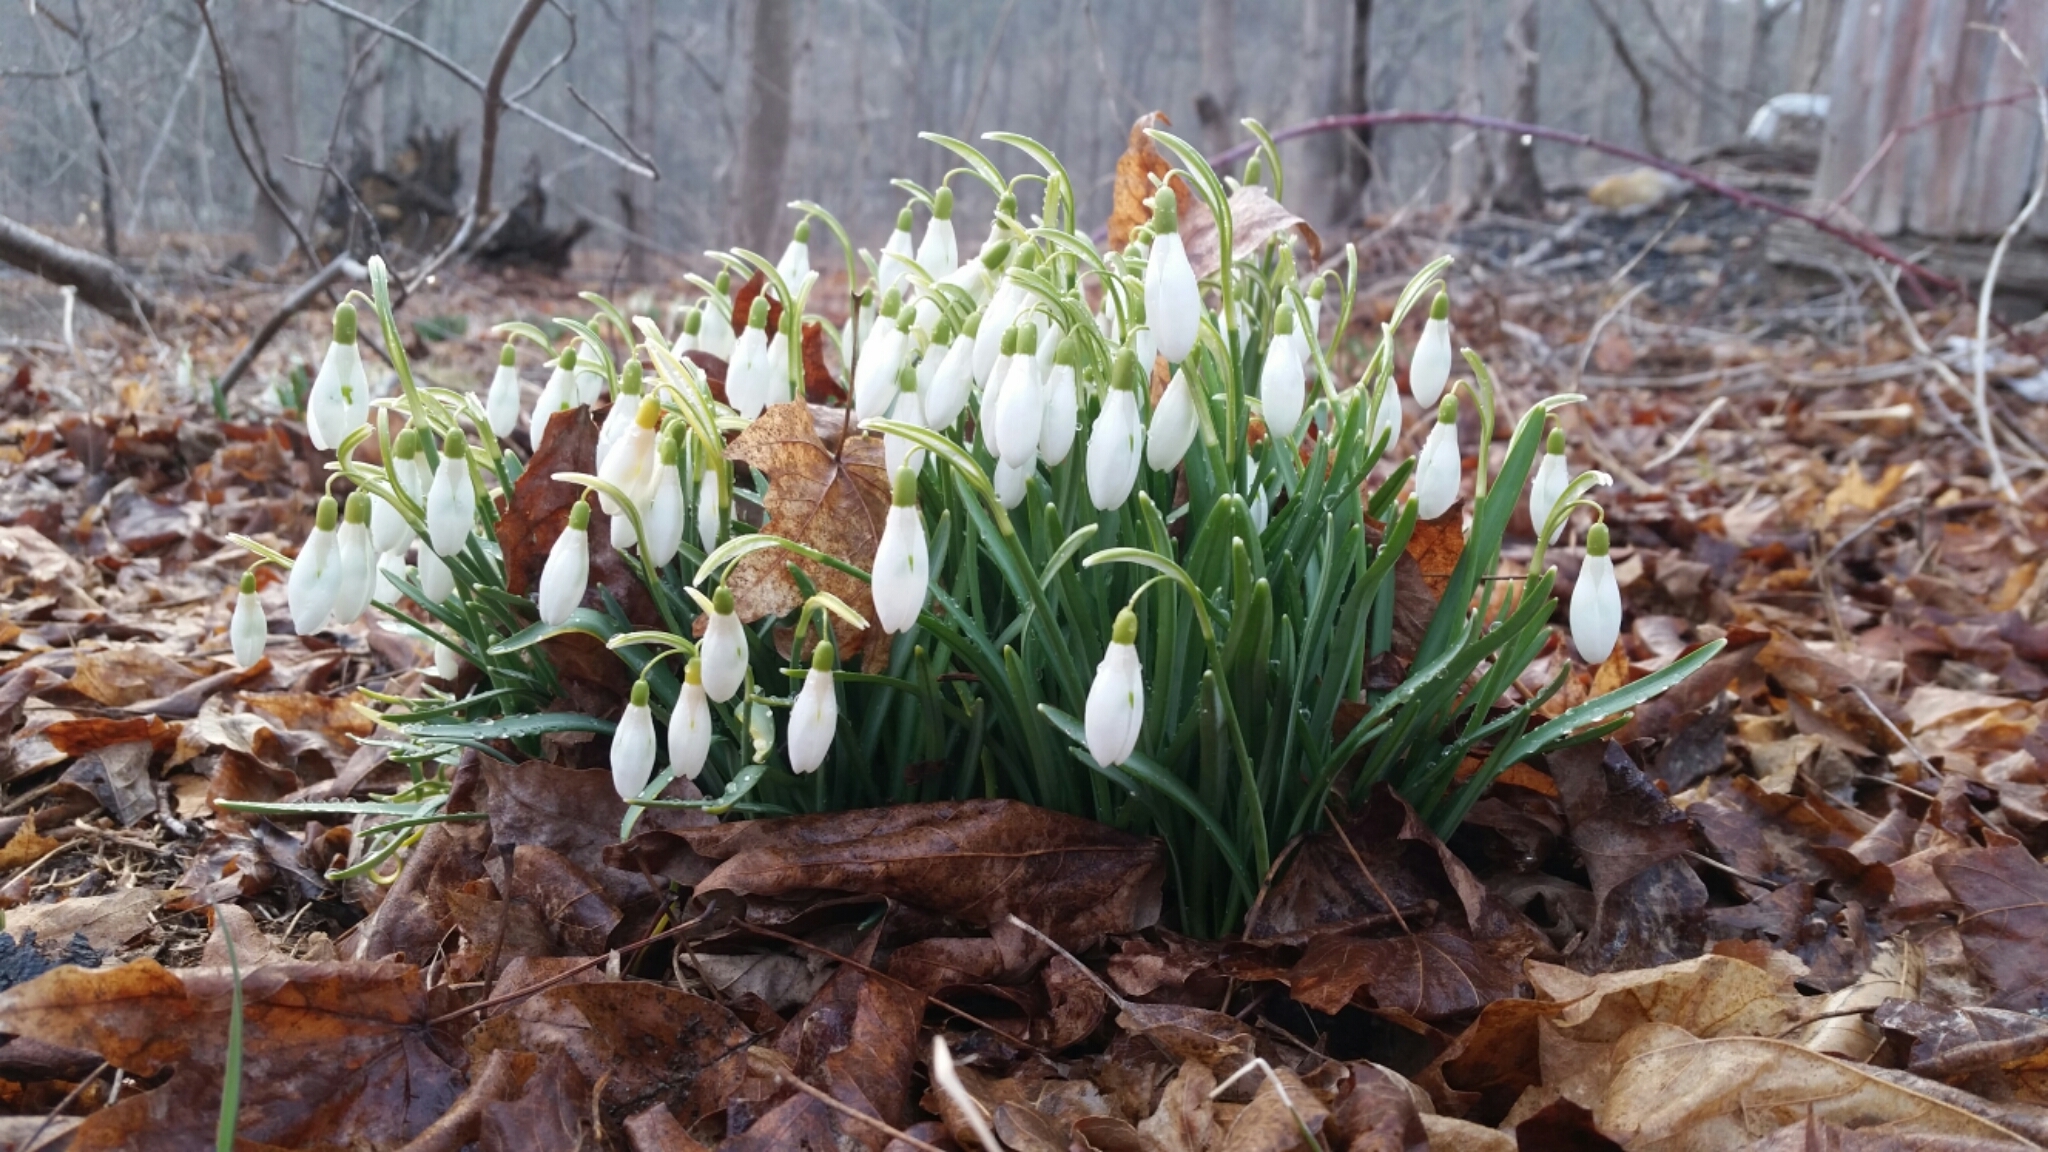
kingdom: Plantae
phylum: Tracheophyta
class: Liliopsida
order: Asparagales
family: Amaryllidaceae
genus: Galanthus
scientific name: Galanthus nivalis
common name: Snowdrop
